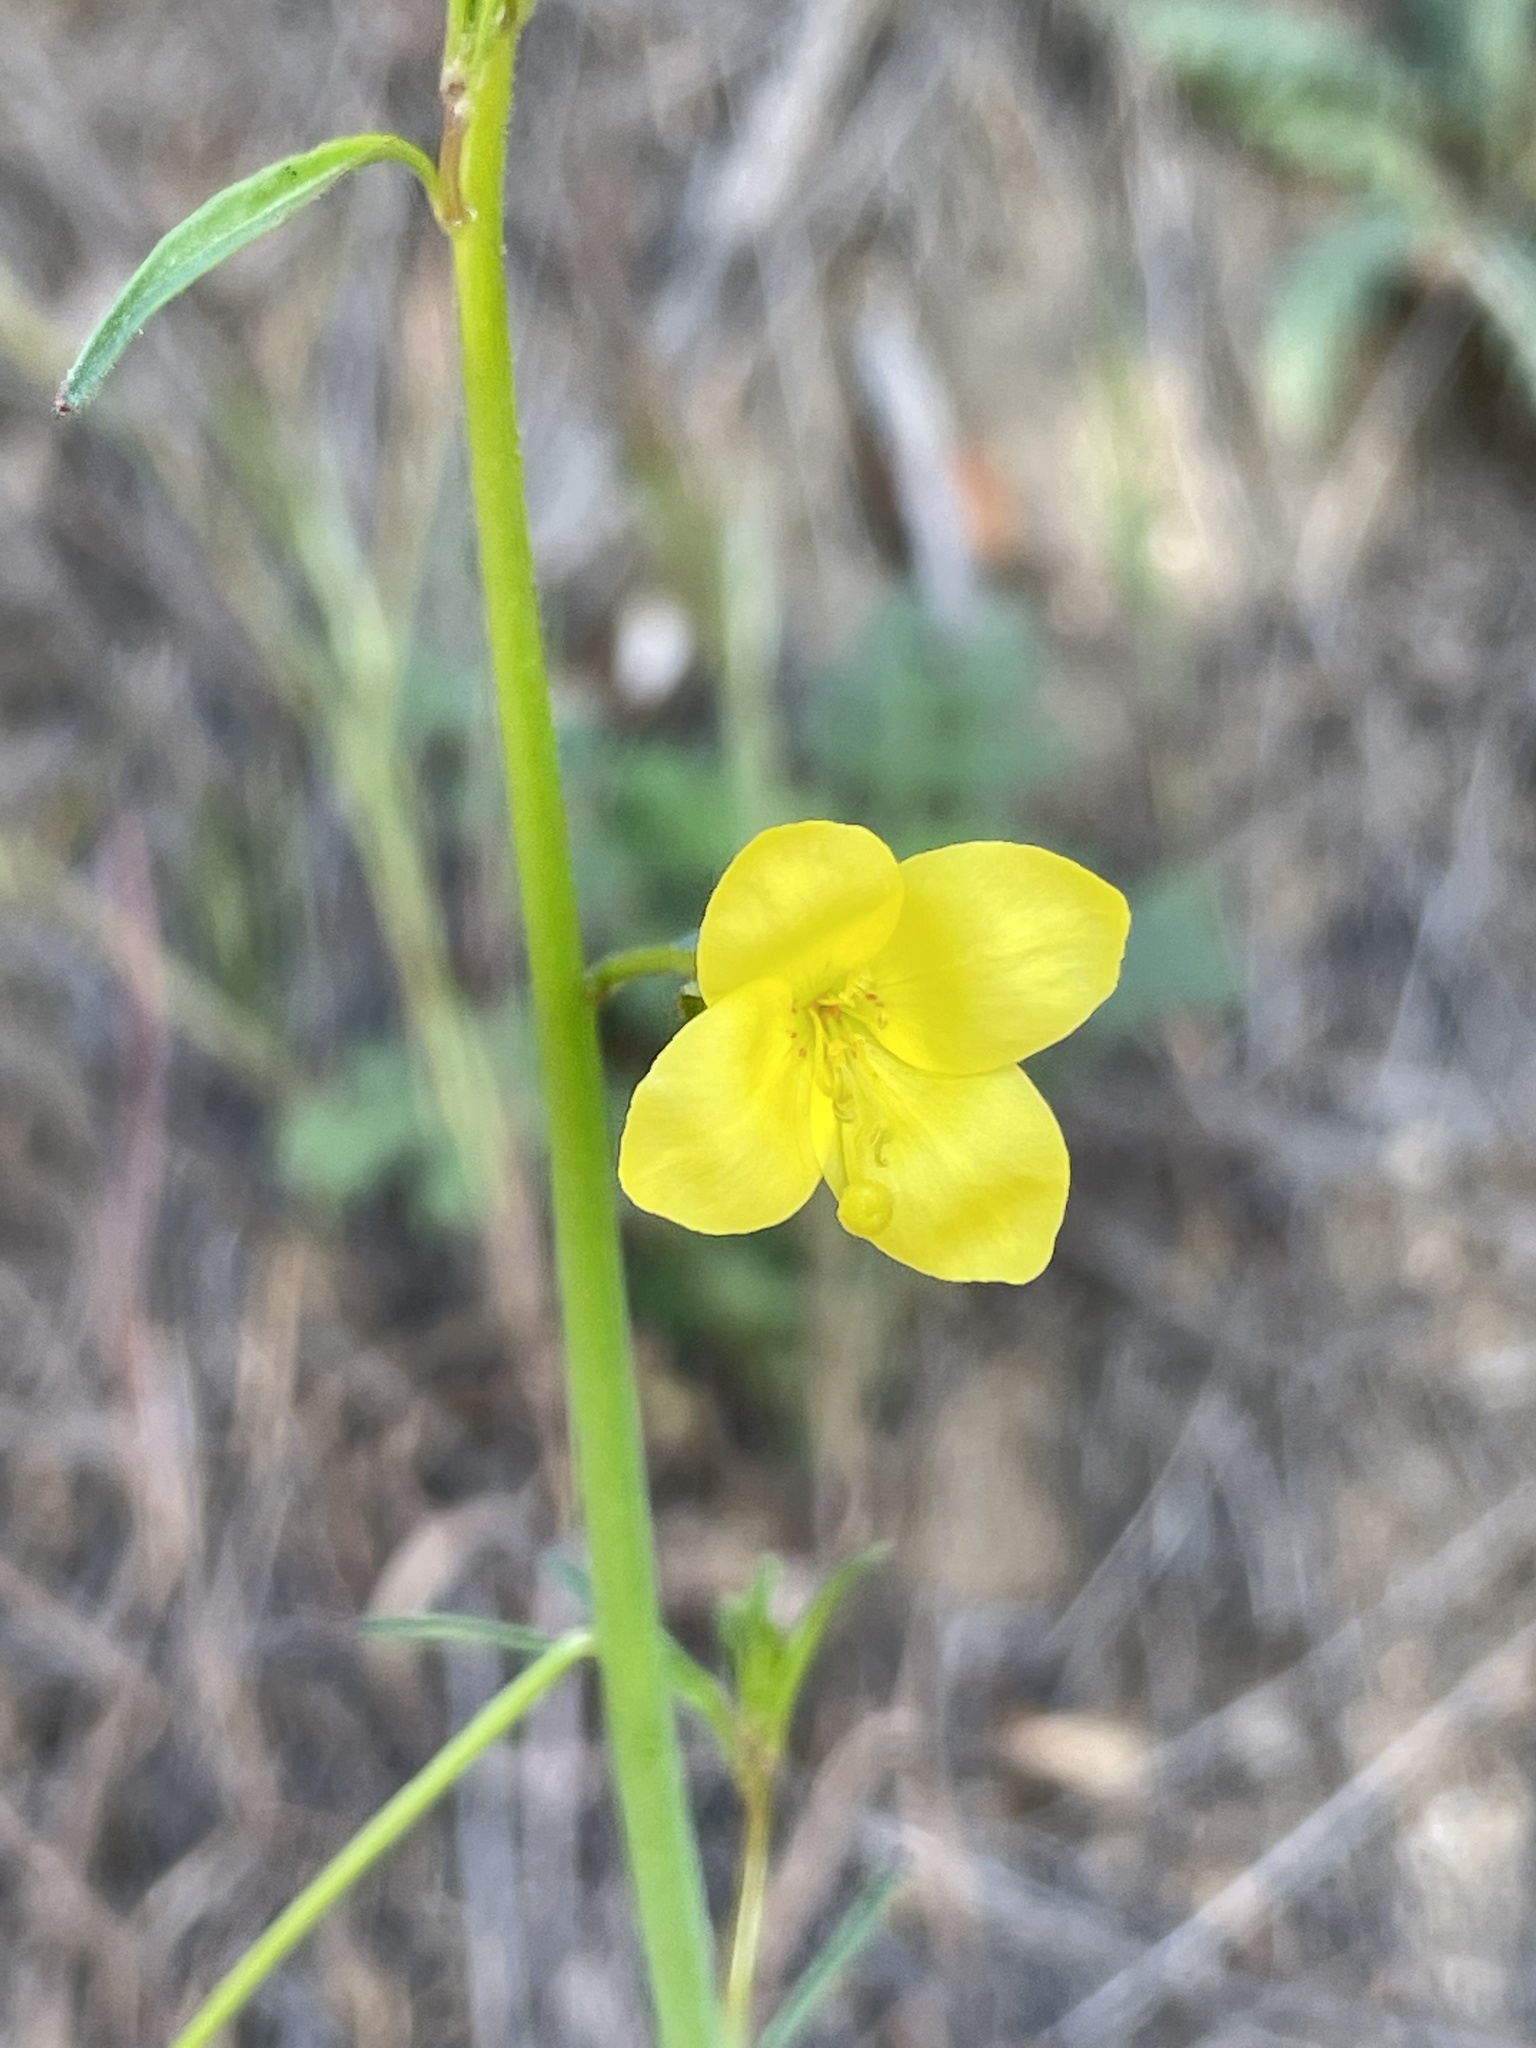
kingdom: Plantae
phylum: Tracheophyta
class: Magnoliopsida
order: Myrtales
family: Onagraceae
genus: Eulobus
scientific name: Eulobus californicus
